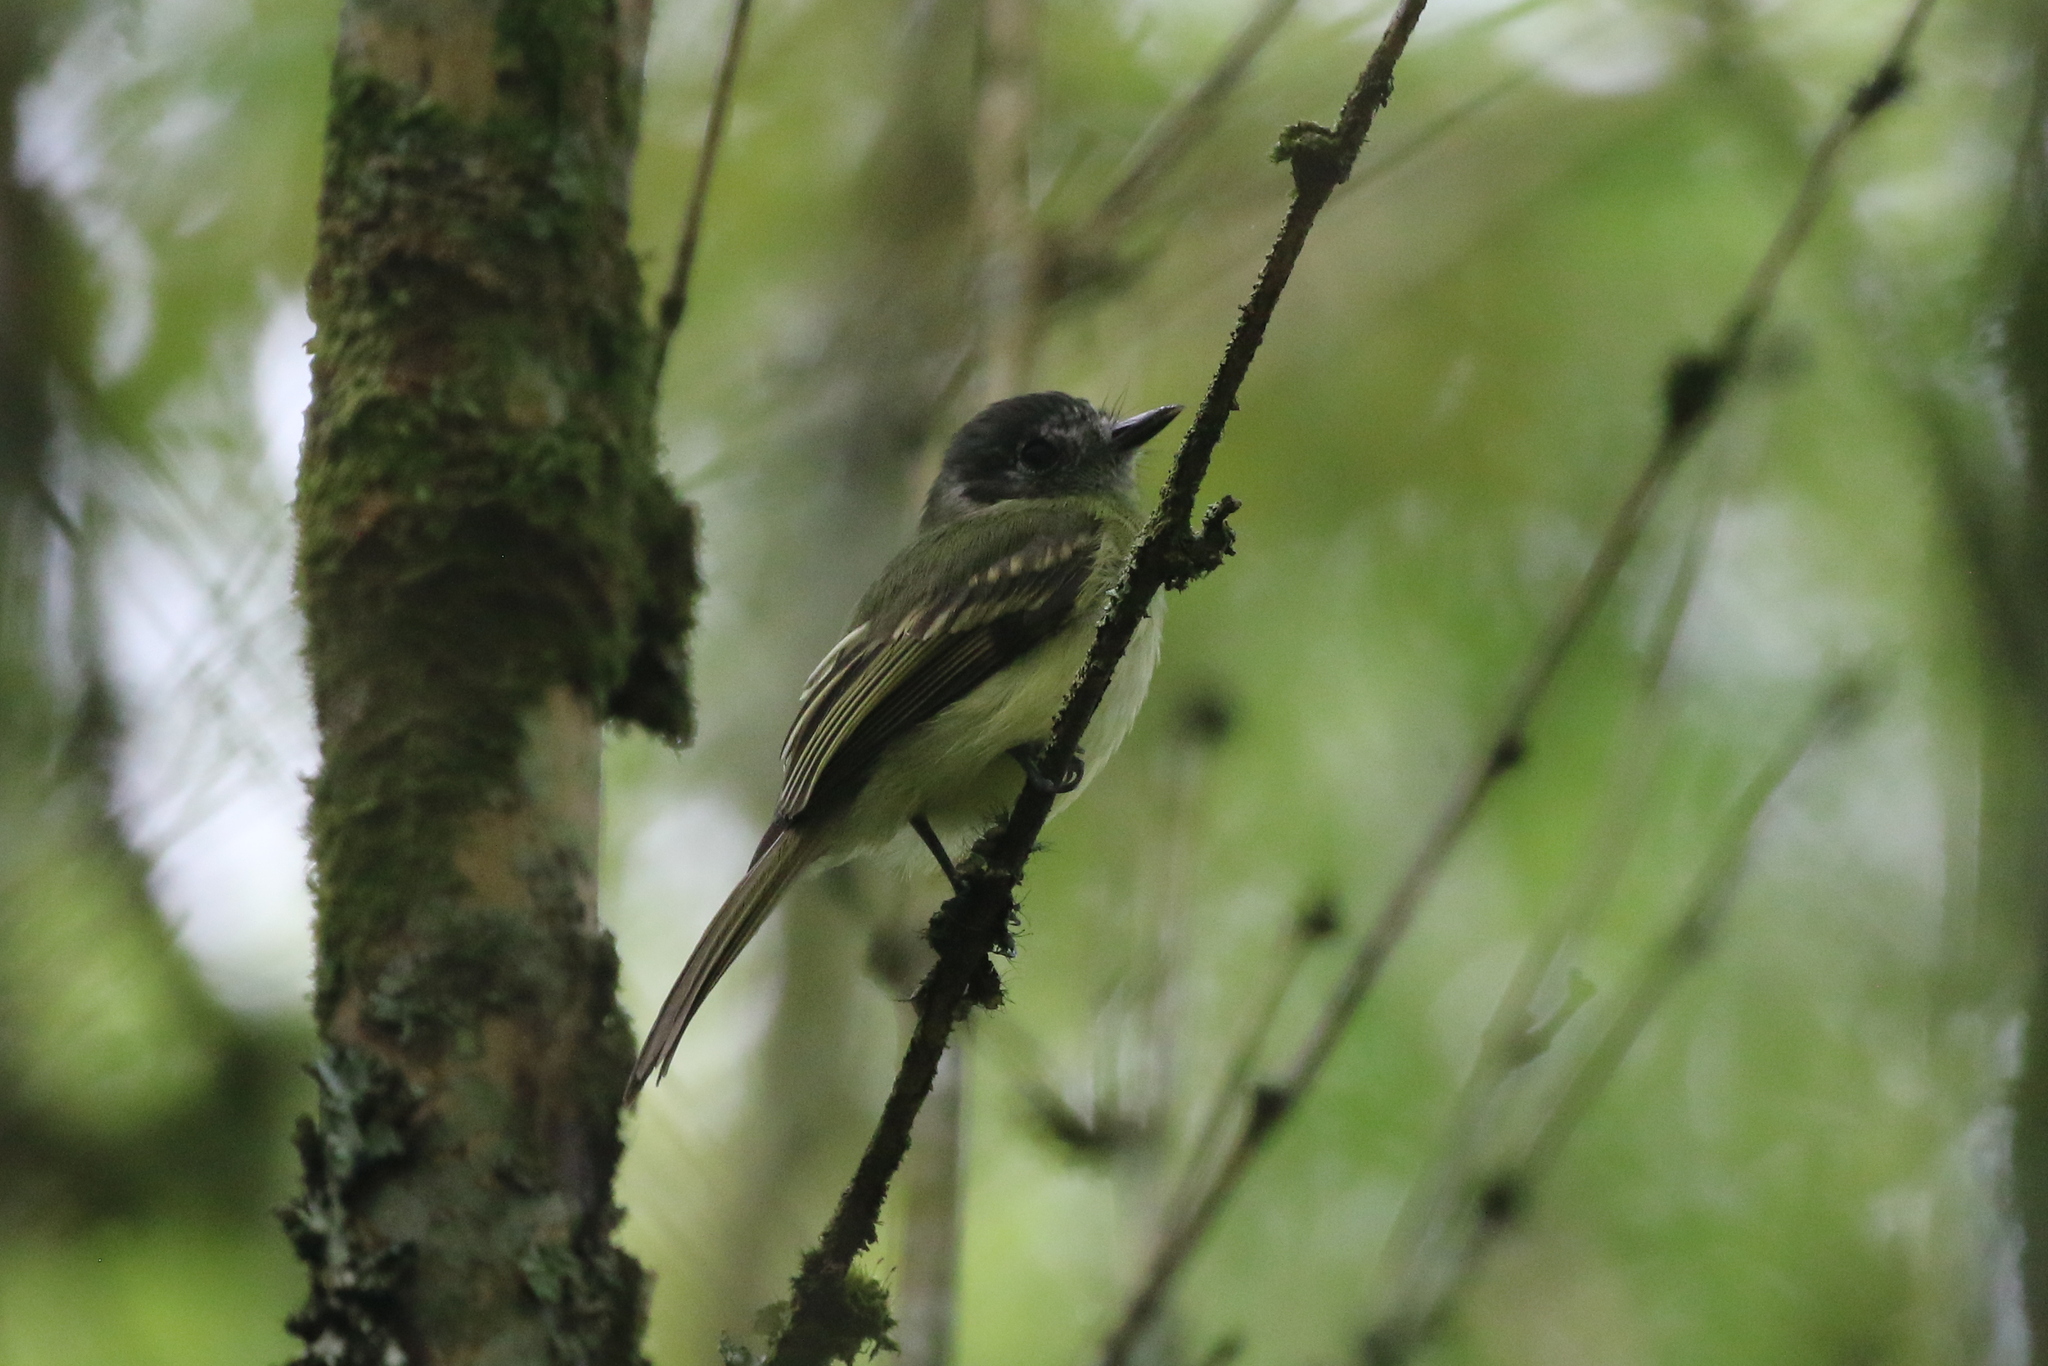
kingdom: Animalia
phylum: Chordata
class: Aves
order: Passeriformes
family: Tyrannidae
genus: Leptopogon
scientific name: Leptopogon superciliaris
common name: Slaty-capped flycatcher
